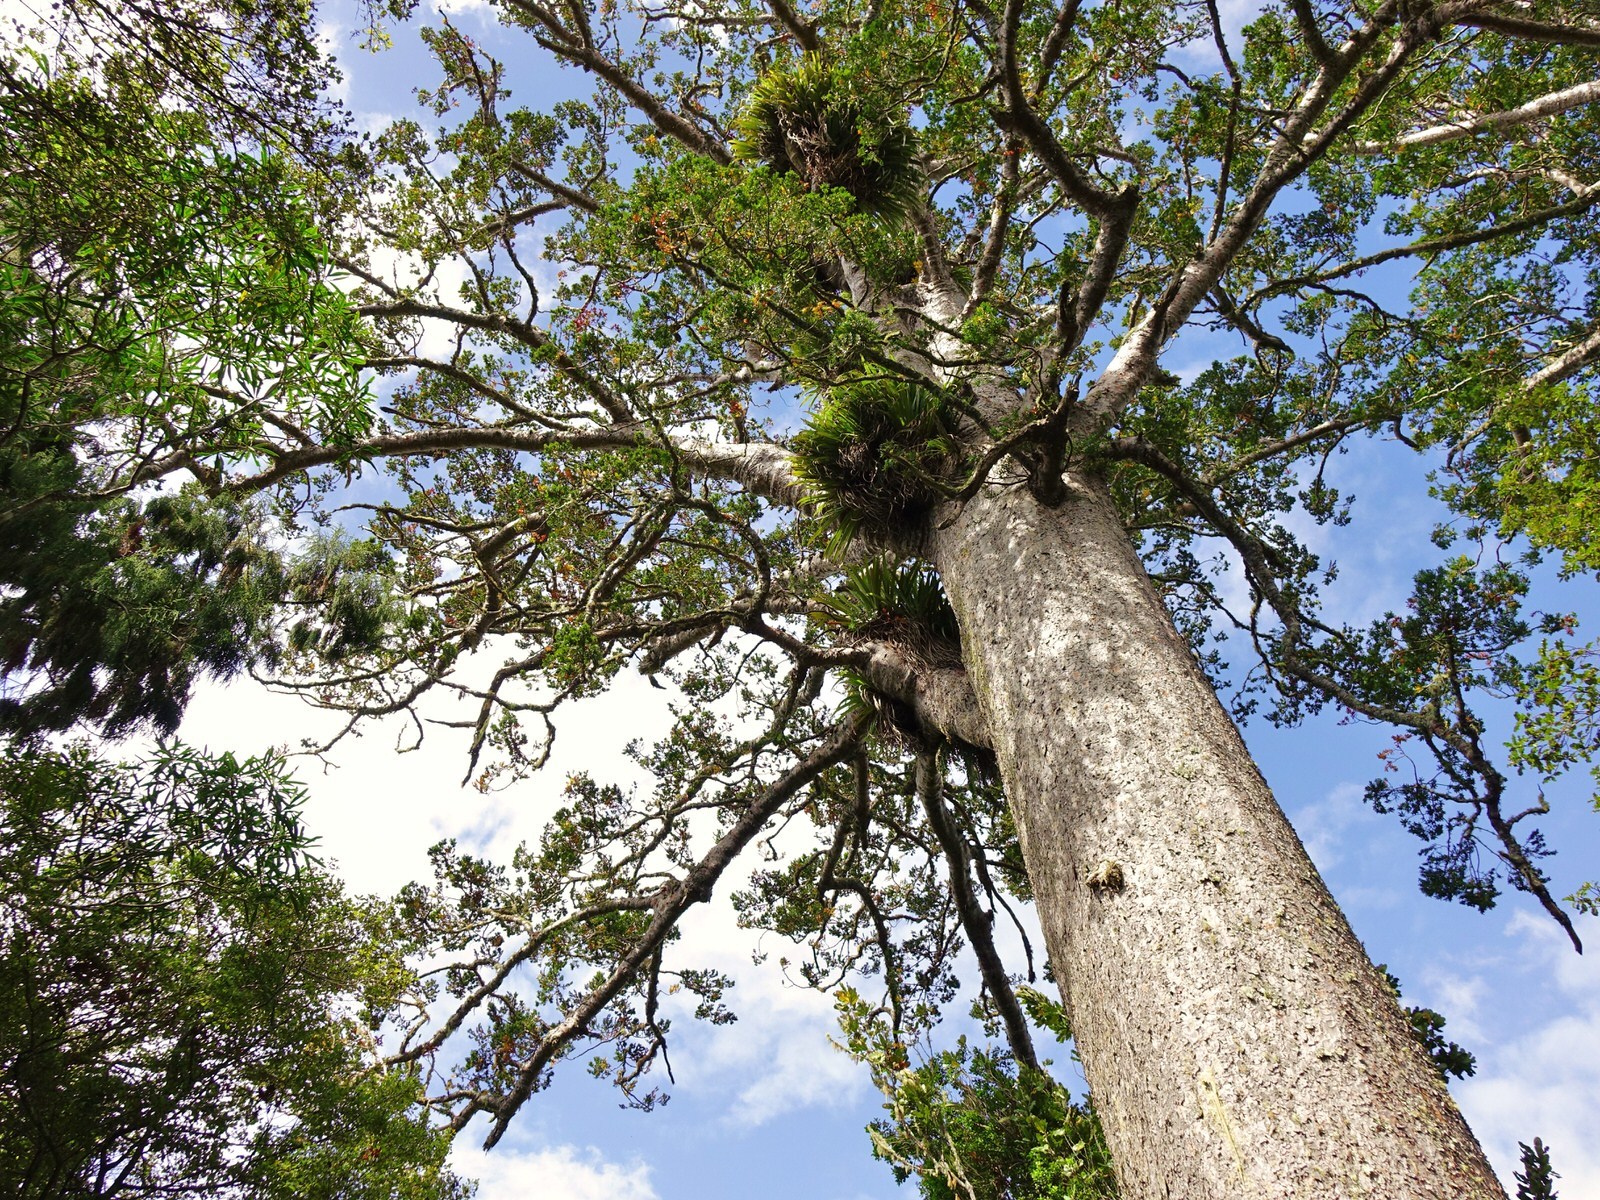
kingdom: Plantae
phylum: Tracheophyta
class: Pinopsida
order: Pinales
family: Araucariaceae
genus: Agathis
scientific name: Agathis australis
